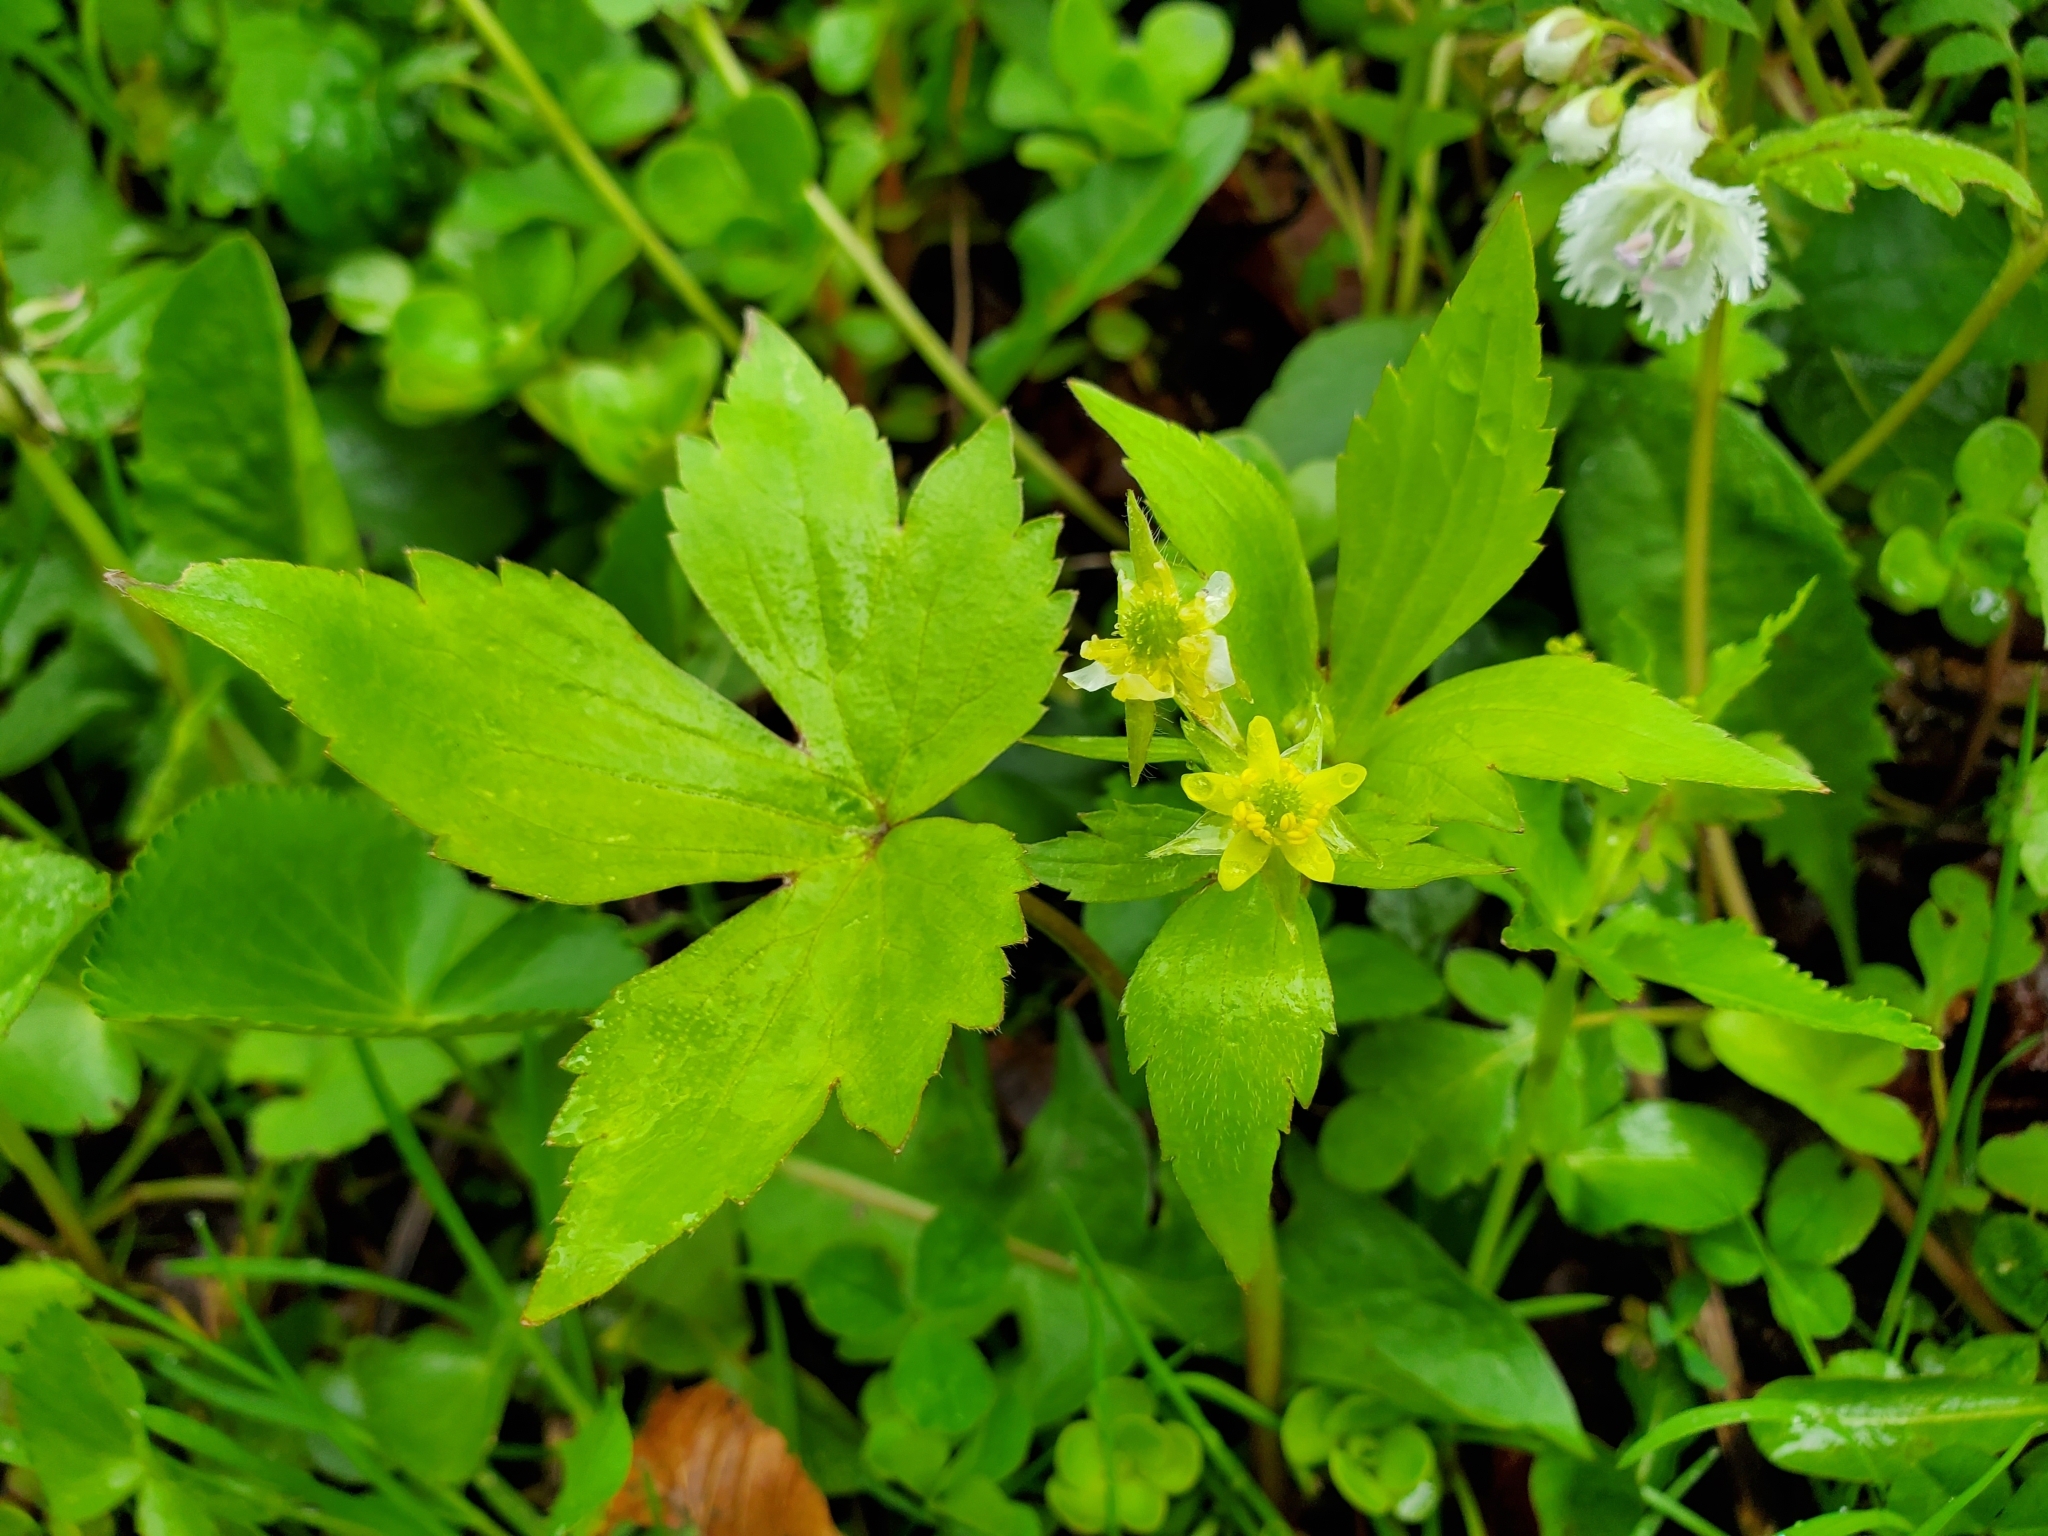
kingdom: Plantae
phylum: Tracheophyta
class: Magnoliopsida
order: Ranunculales
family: Ranunculaceae
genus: Ranunculus
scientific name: Ranunculus recurvatus
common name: Blisterwort
